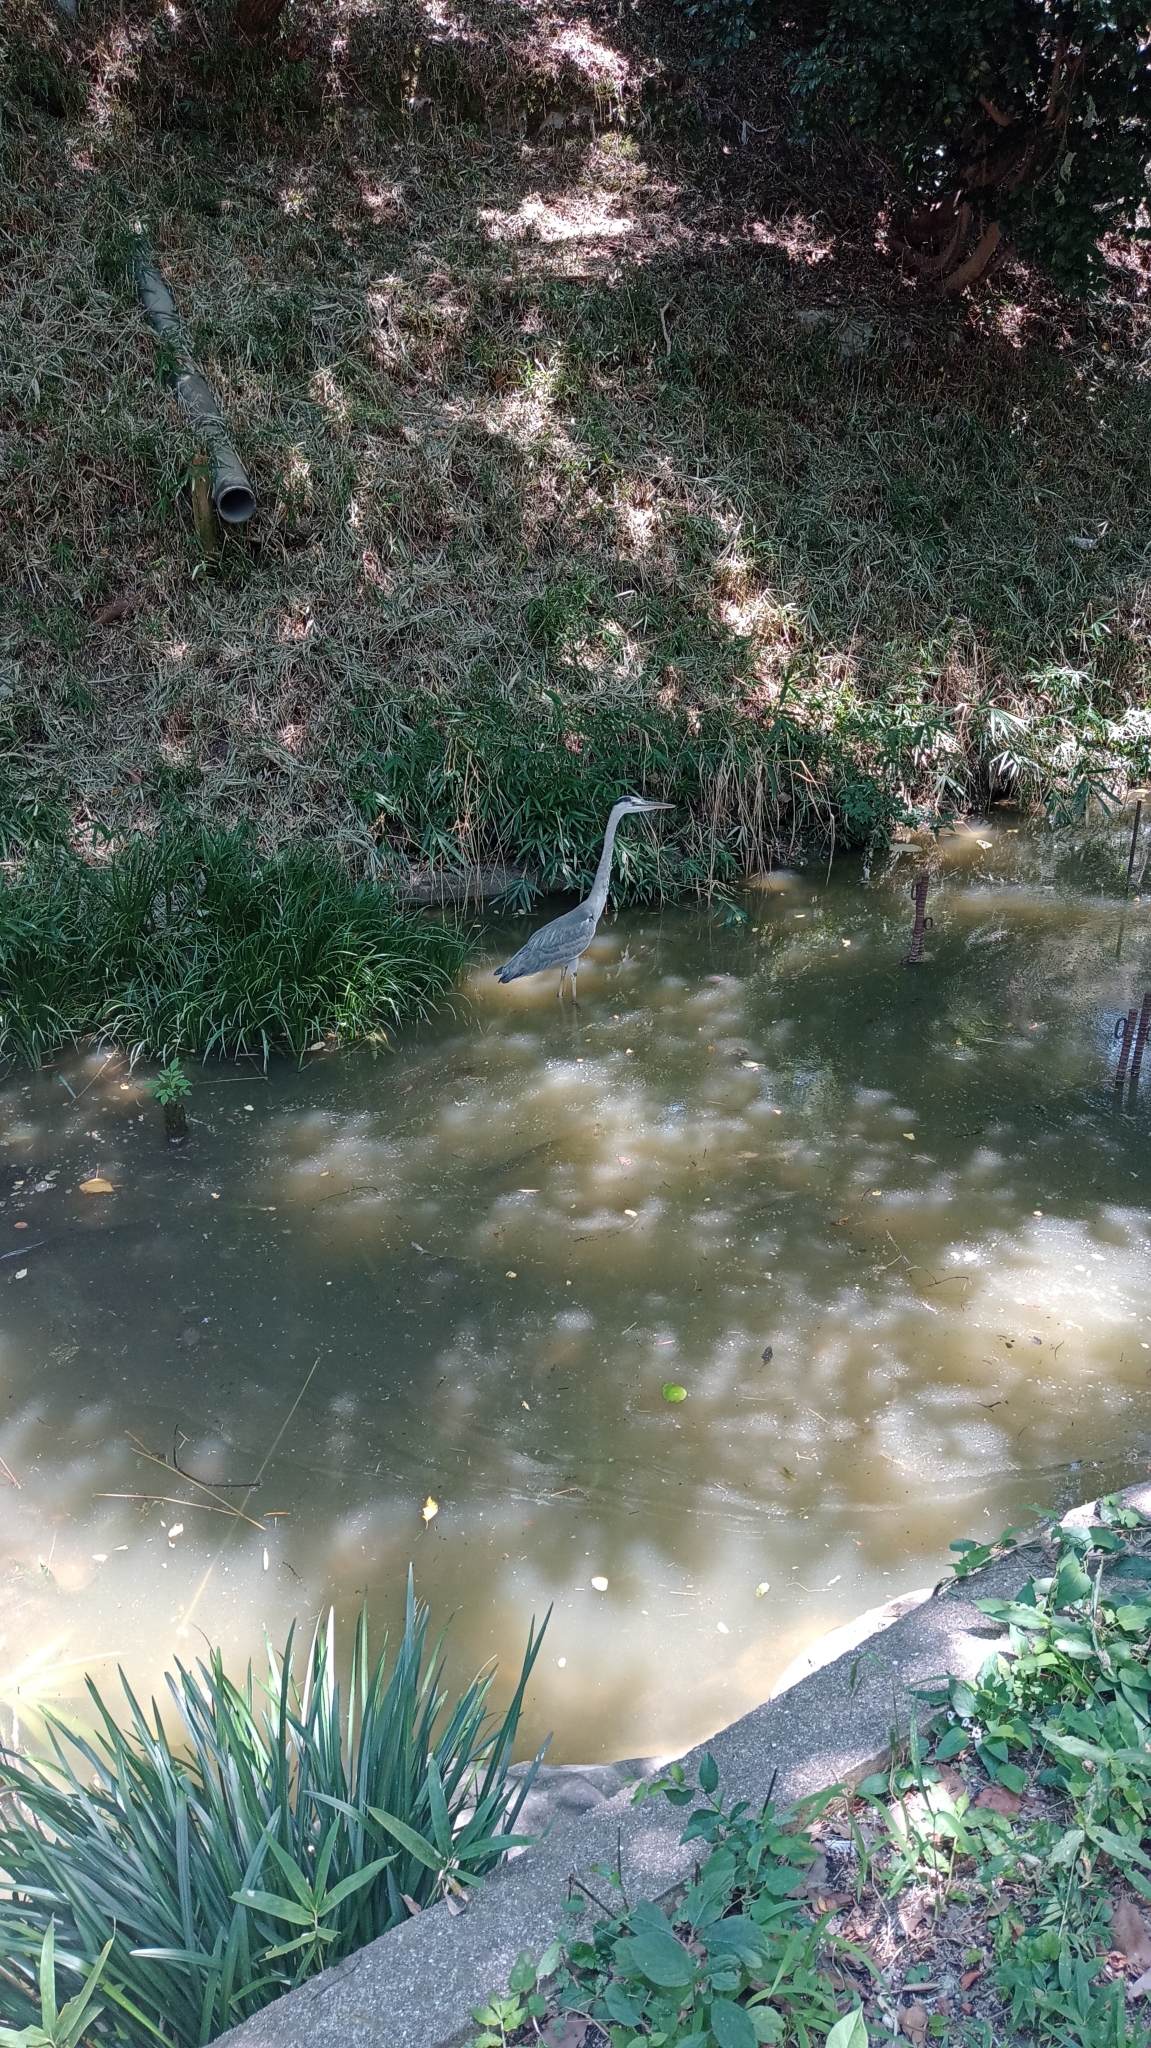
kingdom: Animalia
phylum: Chordata
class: Aves
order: Pelecaniformes
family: Ardeidae
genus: Ardea
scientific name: Ardea cinerea
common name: Grey heron
